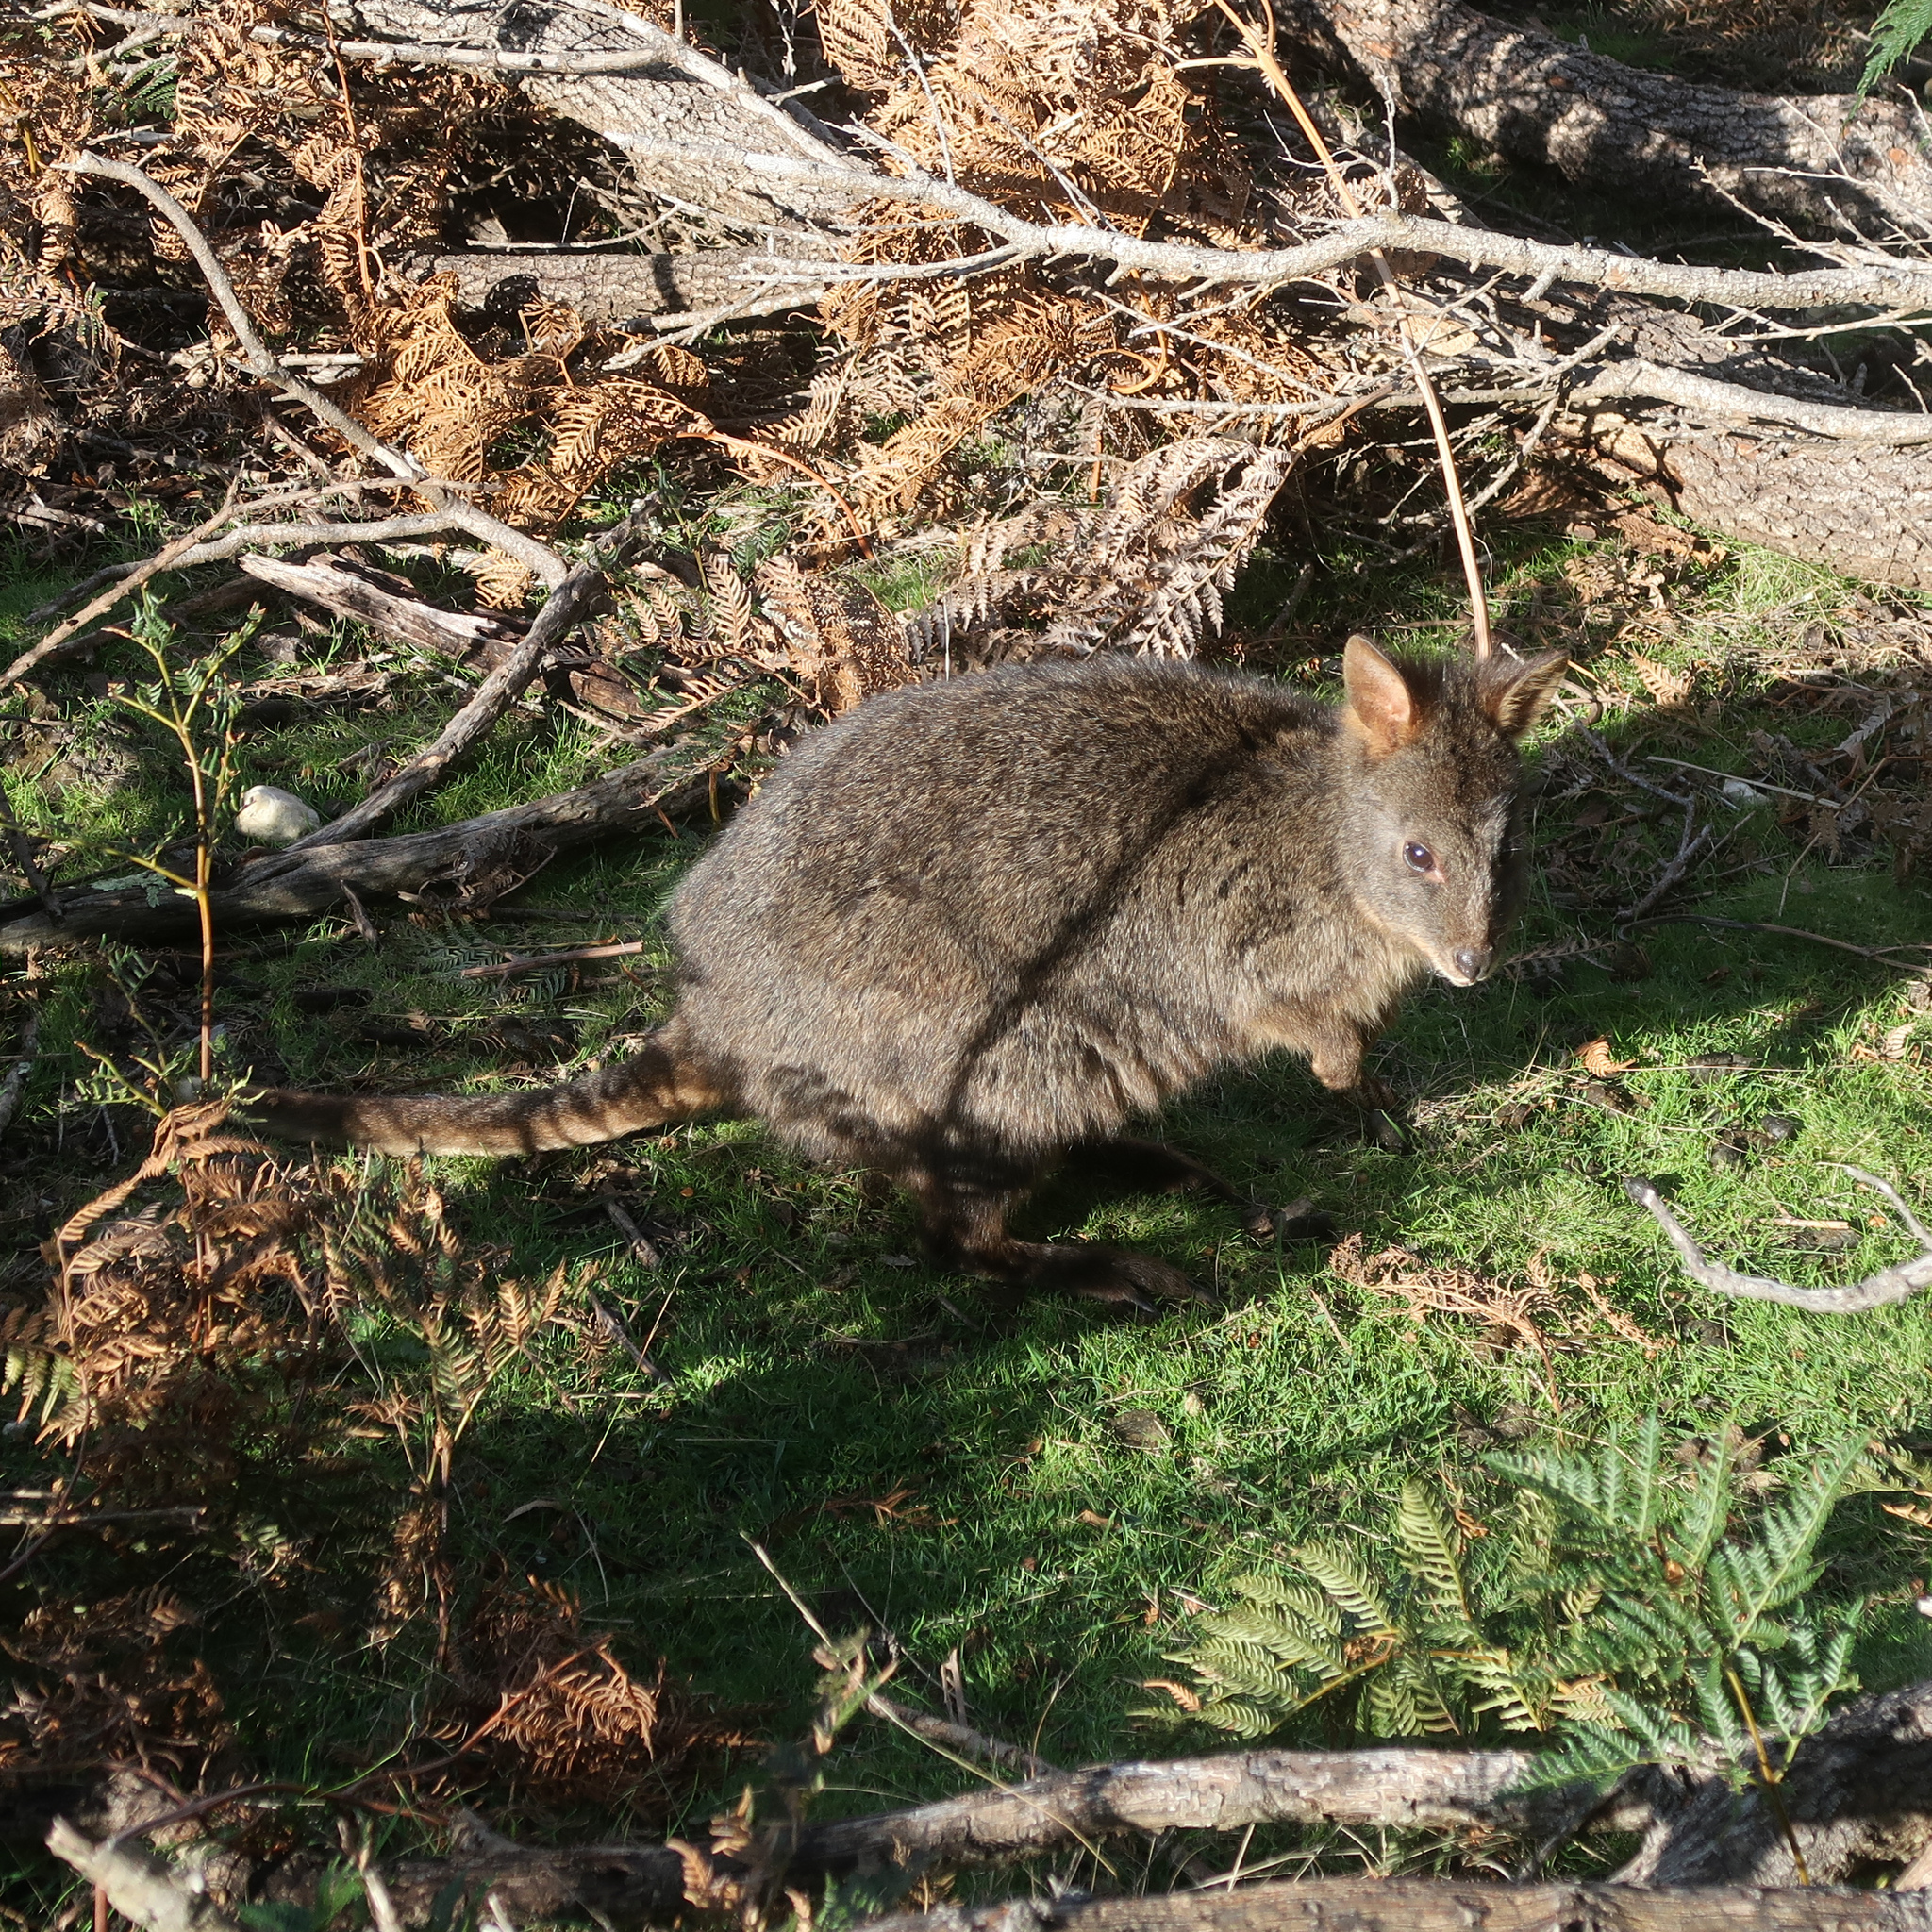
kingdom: Animalia
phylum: Chordata
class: Mammalia
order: Diprotodontia
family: Macropodidae
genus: Thylogale
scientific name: Thylogale billardierii
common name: Tasmanian pademelon
